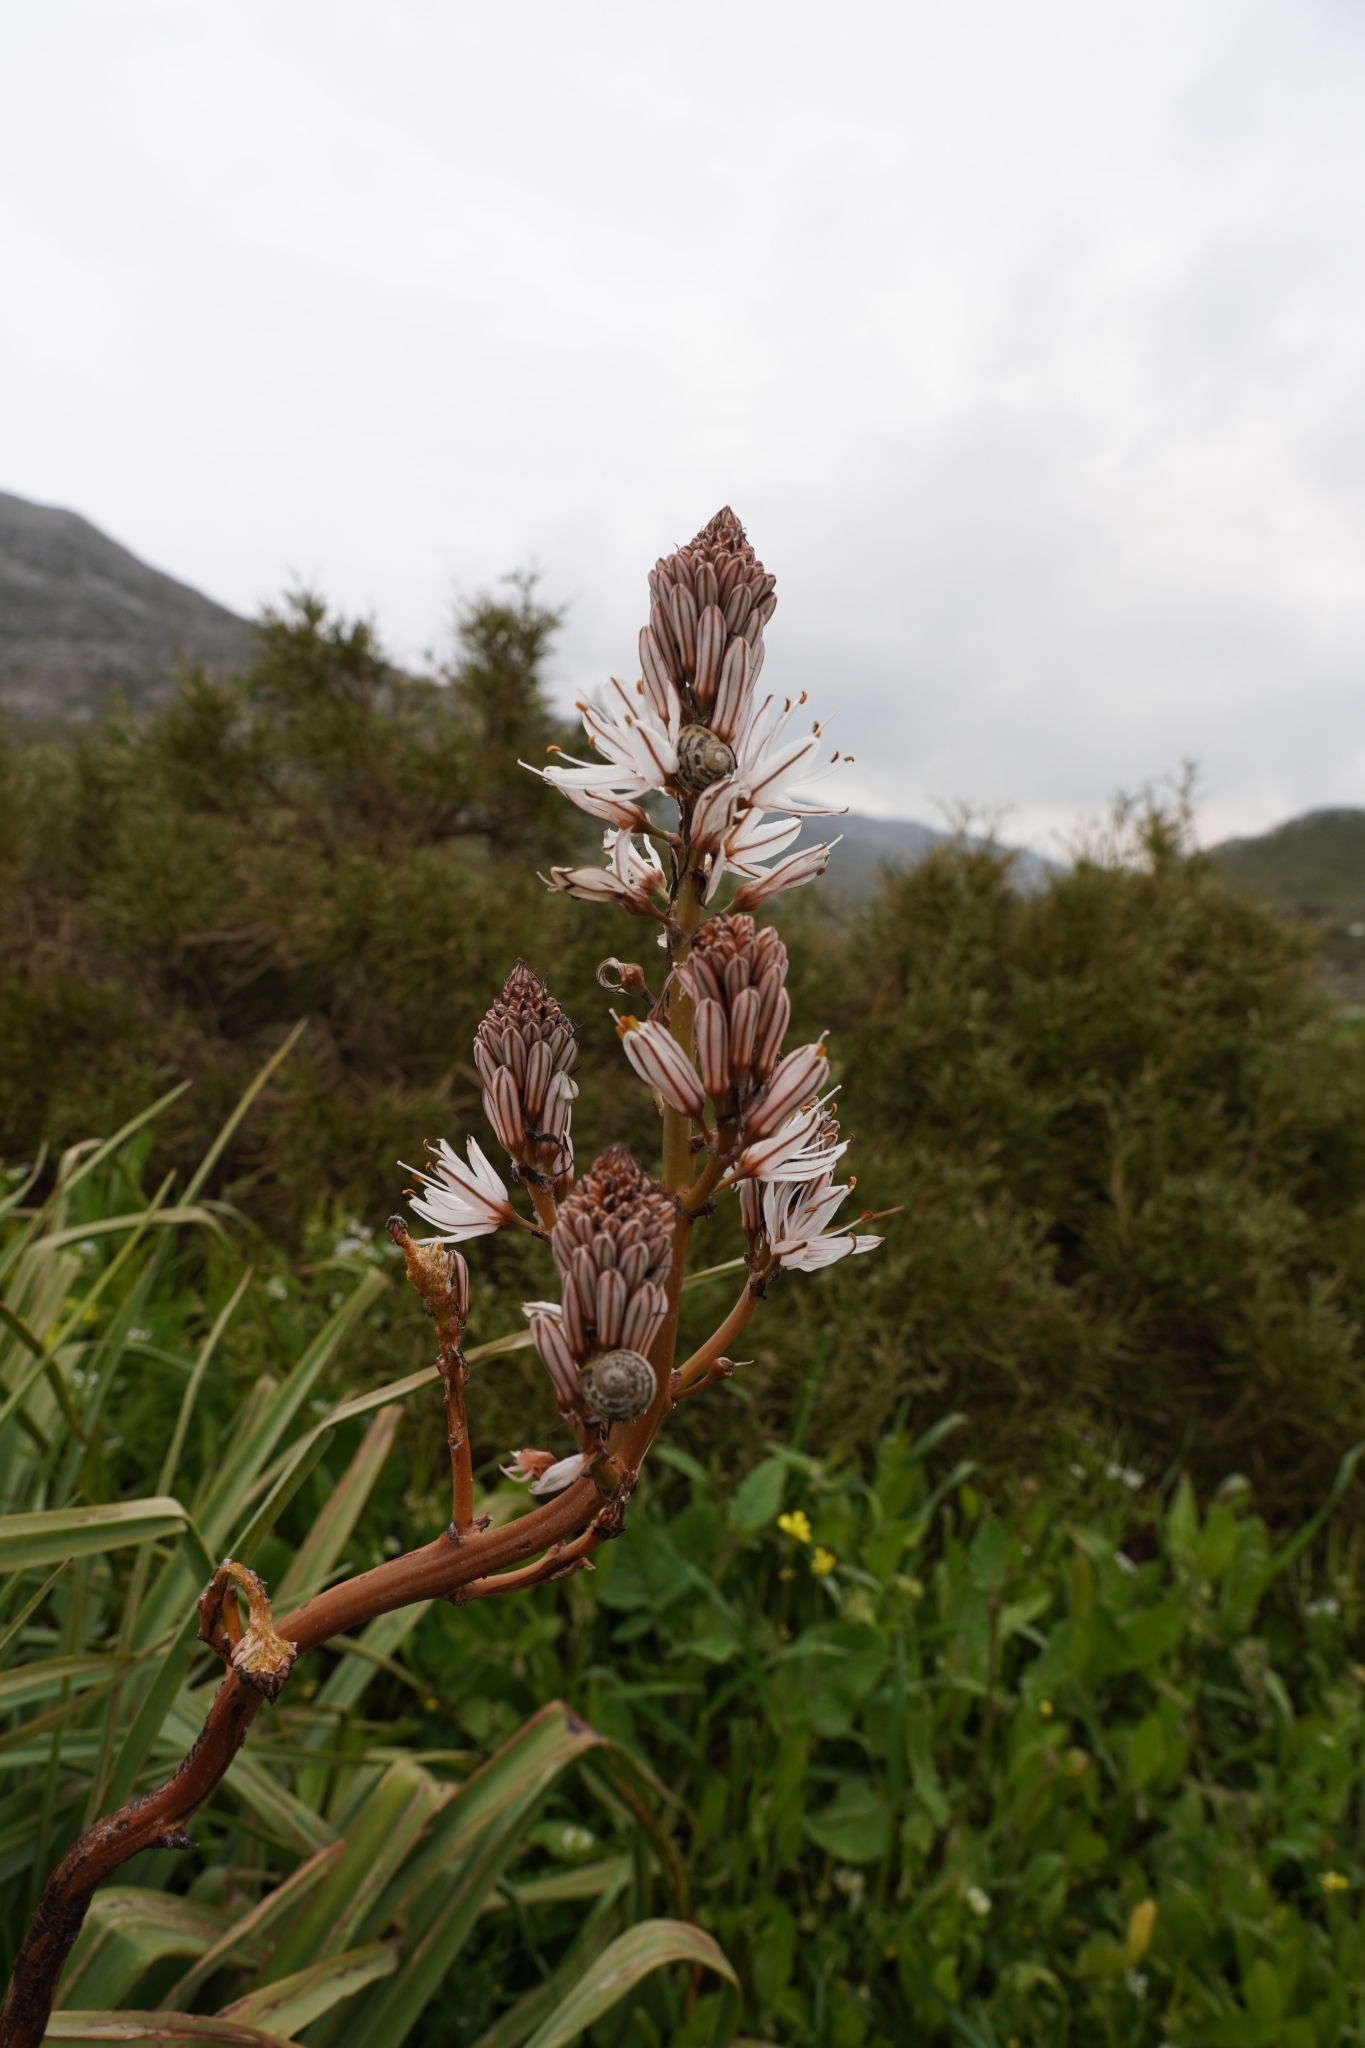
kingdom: Plantae
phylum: Tracheophyta
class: Liliopsida
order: Asparagales
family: Asphodelaceae
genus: Asphodelus
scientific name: Asphodelus ramosus
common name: Silverrod
